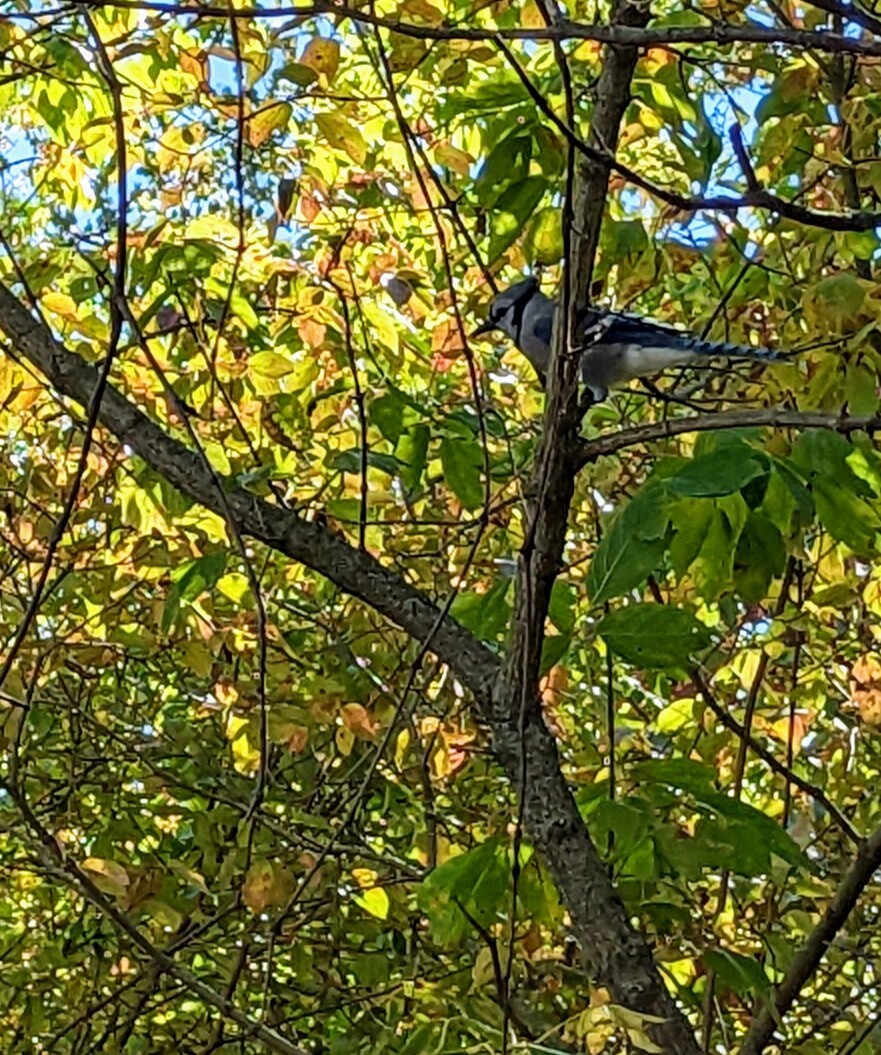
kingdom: Animalia
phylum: Chordata
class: Aves
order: Passeriformes
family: Corvidae
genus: Cyanocitta
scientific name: Cyanocitta cristata
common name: Blue jay
